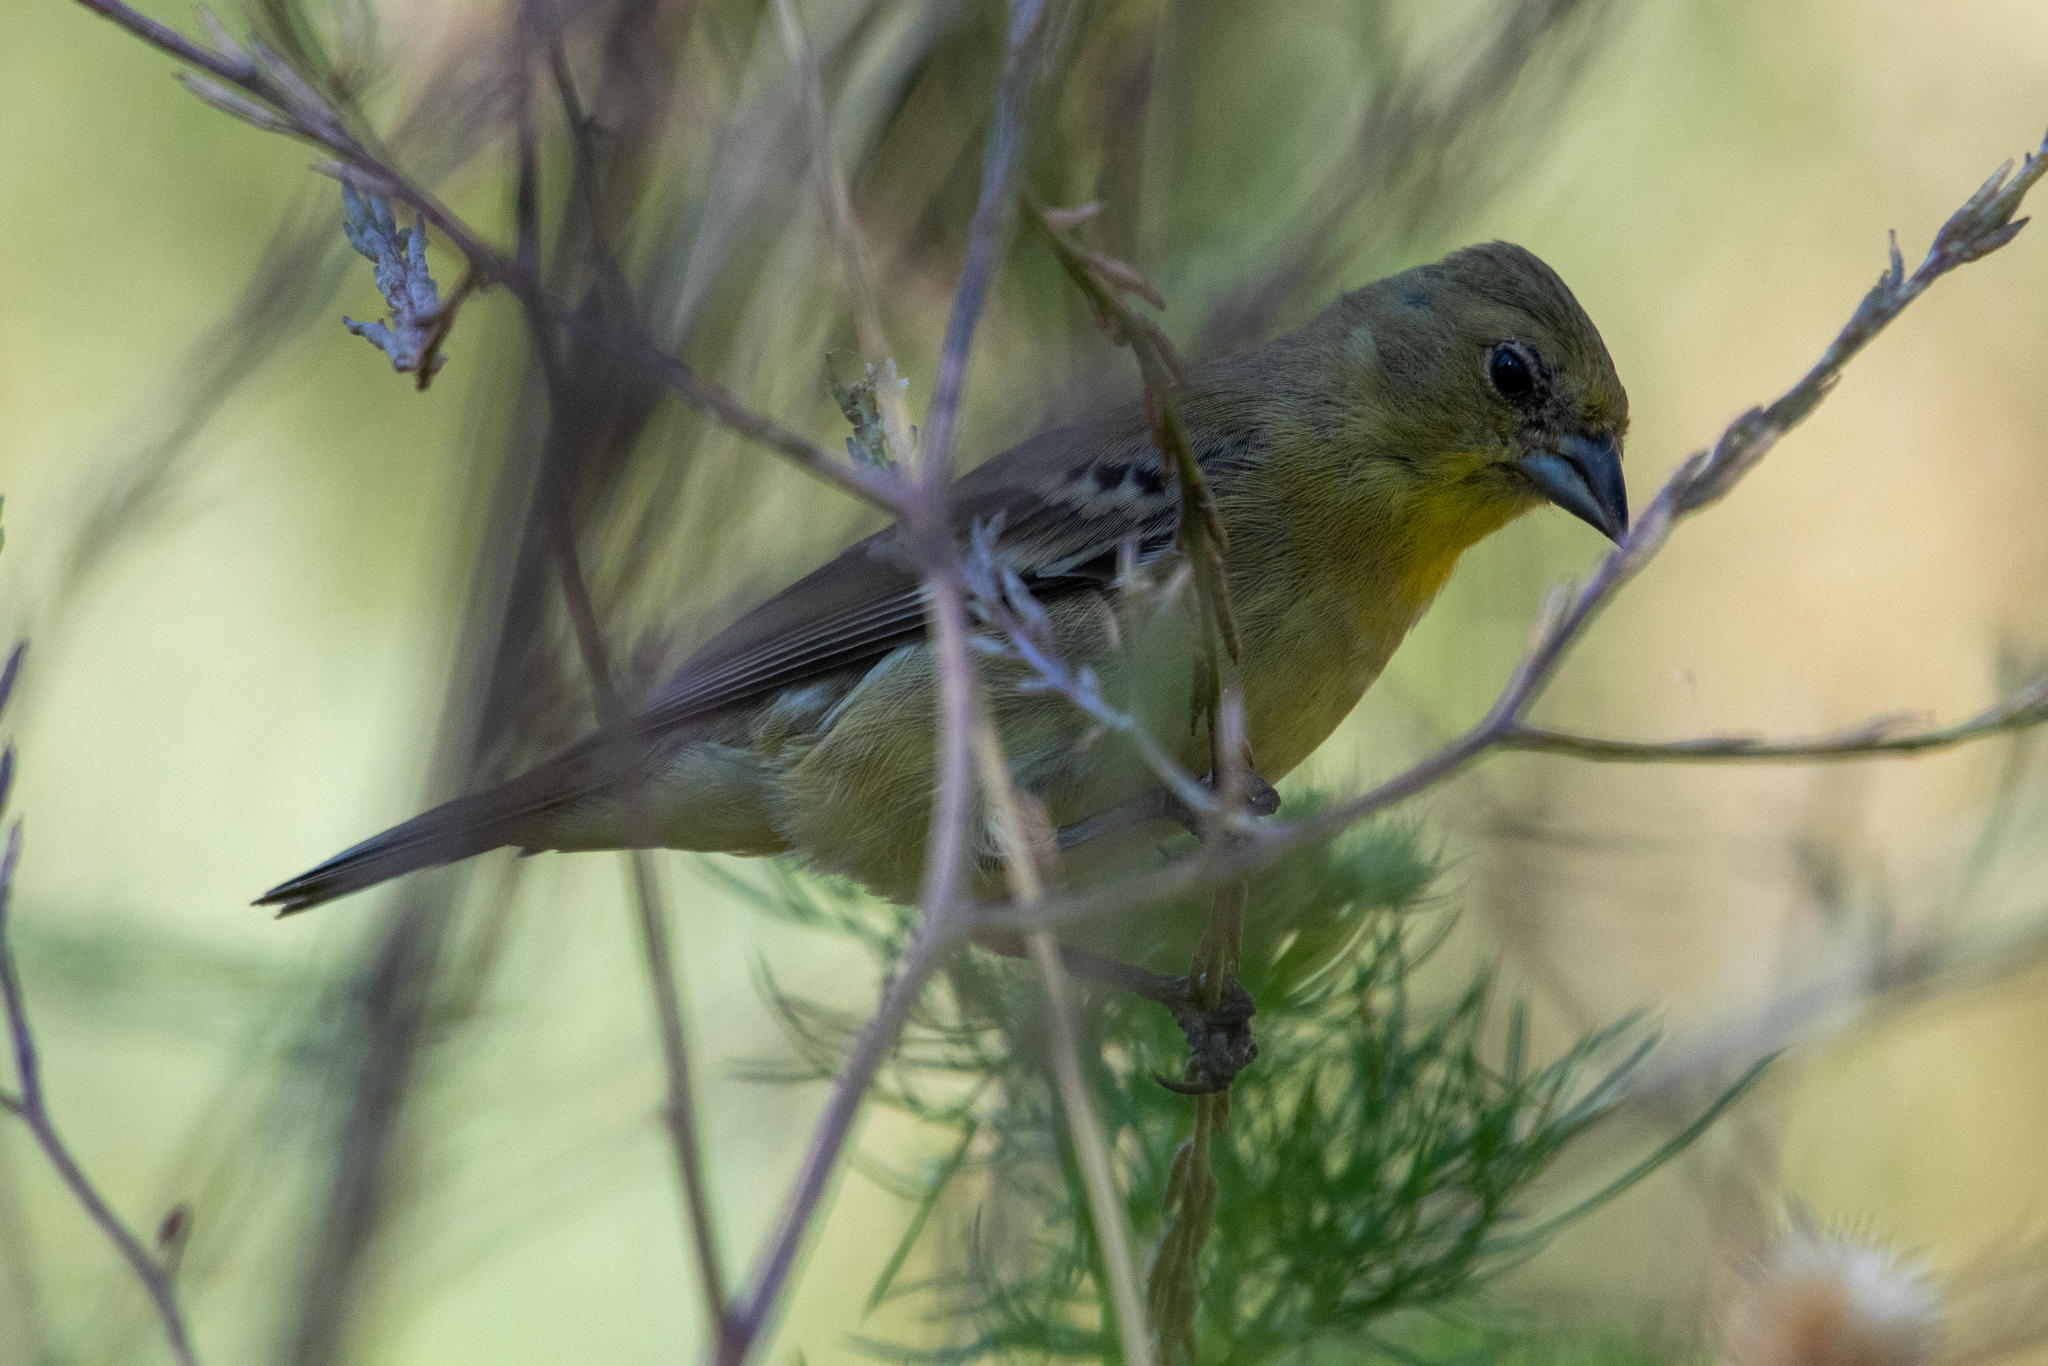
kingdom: Animalia
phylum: Chordata
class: Aves
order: Passeriformes
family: Fringillidae
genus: Spinus
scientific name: Spinus psaltria
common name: Lesser goldfinch
